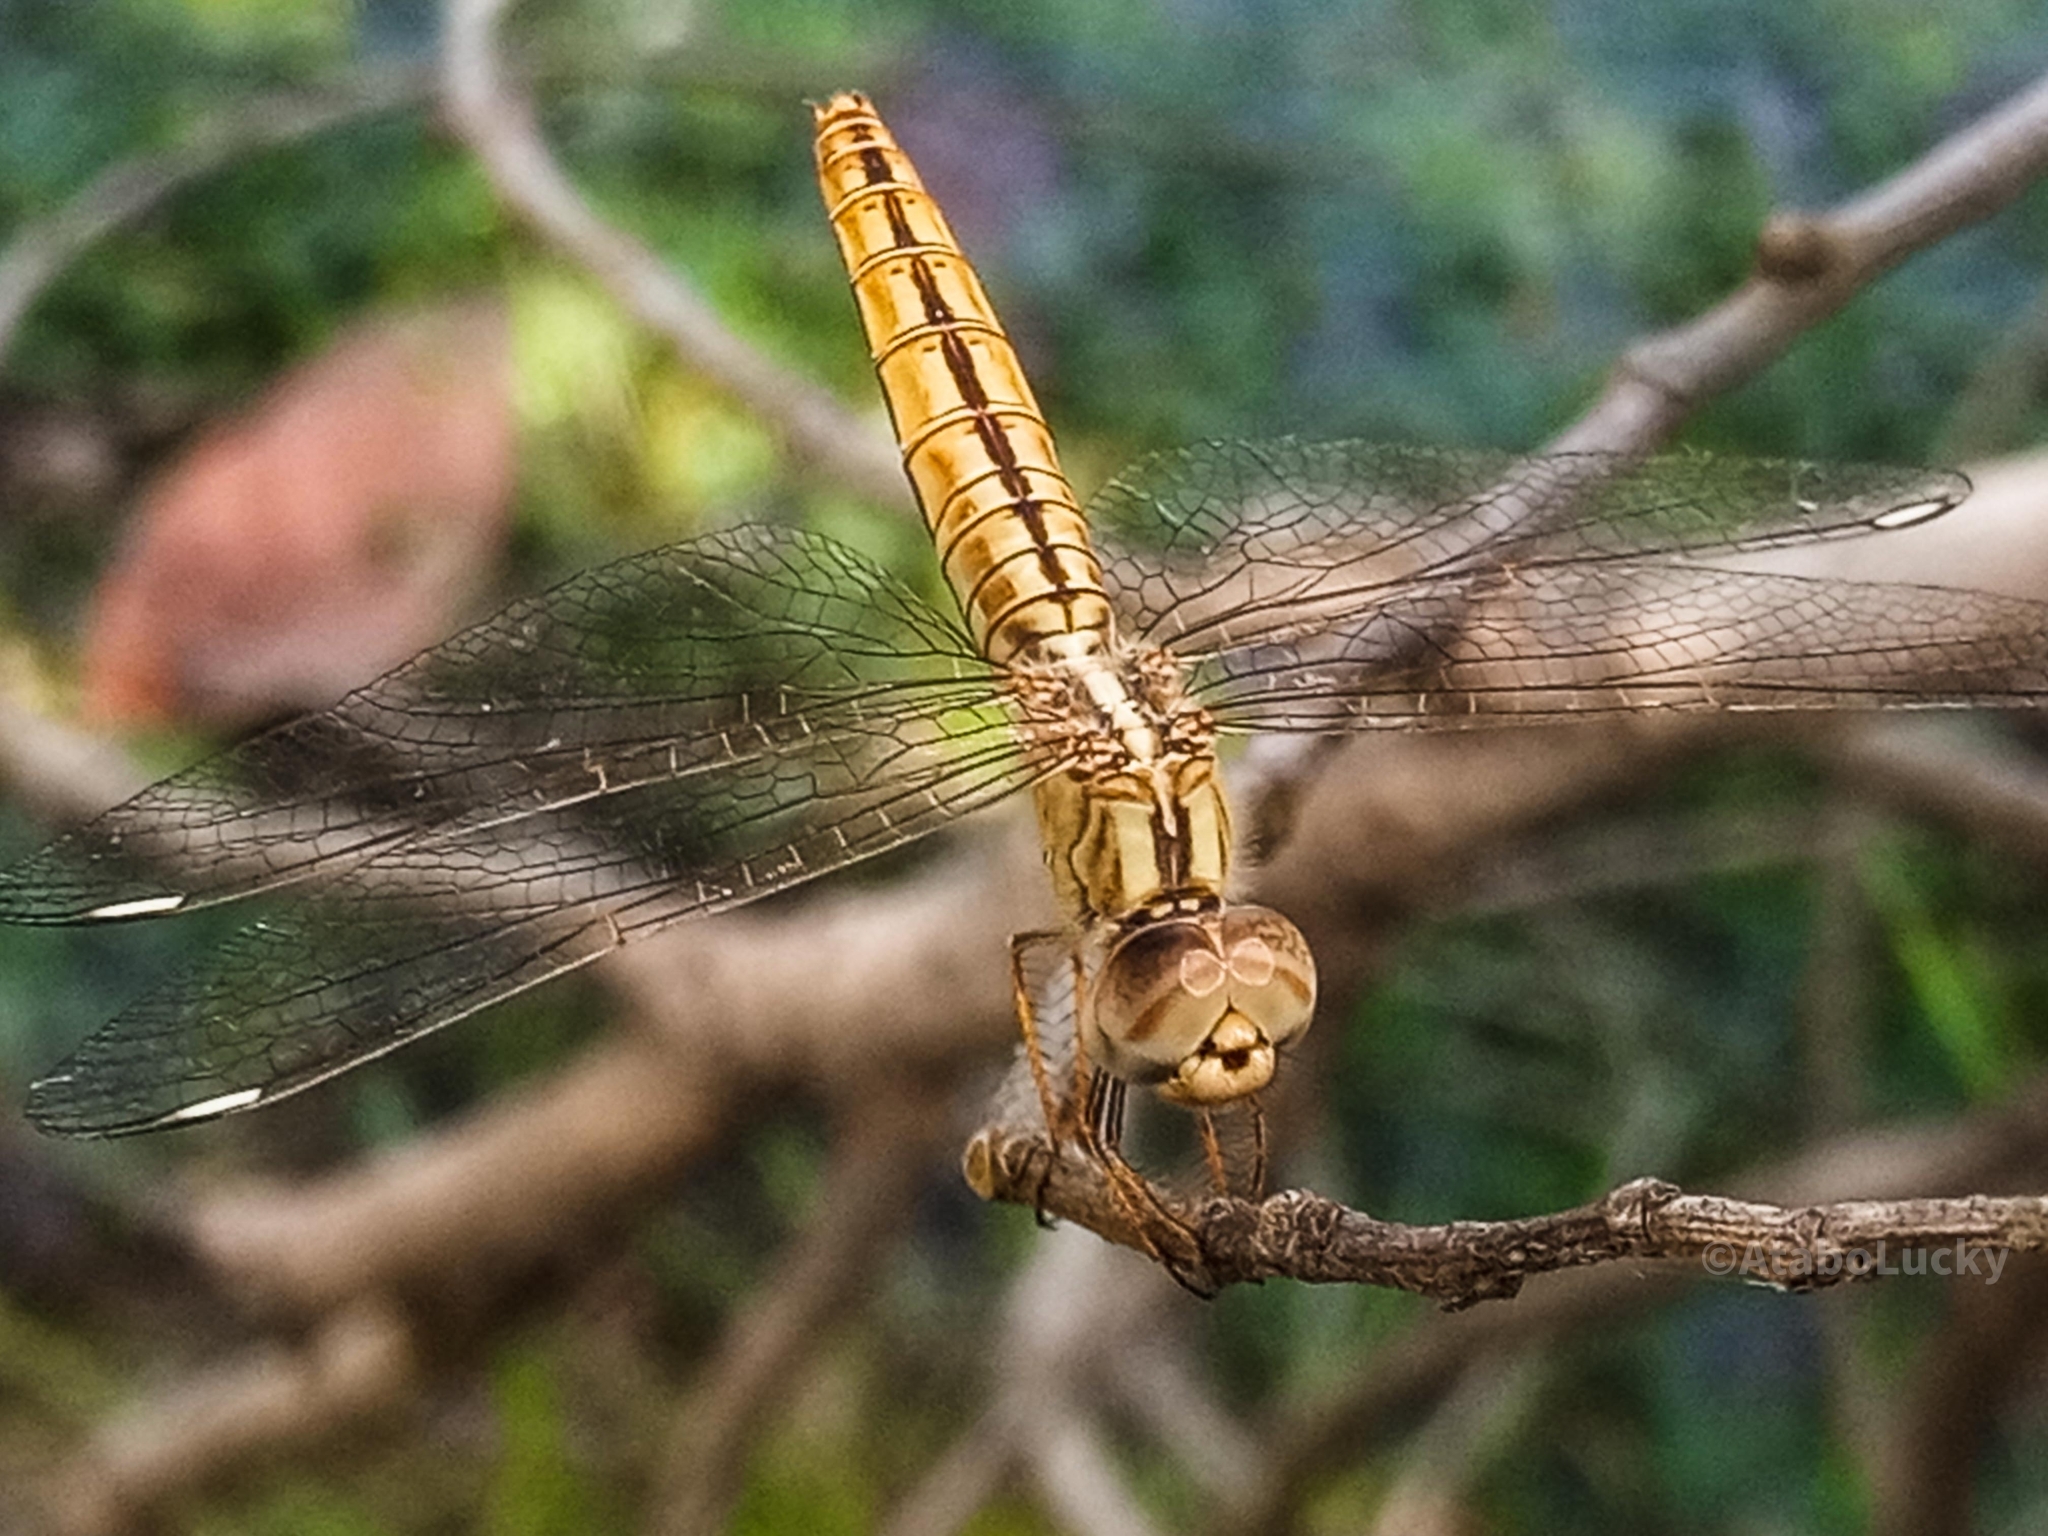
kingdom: Animalia
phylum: Arthropoda
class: Insecta
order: Odonata
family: Libellulidae
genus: Brachythemis
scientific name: Brachythemis lacustris
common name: Red groundling
